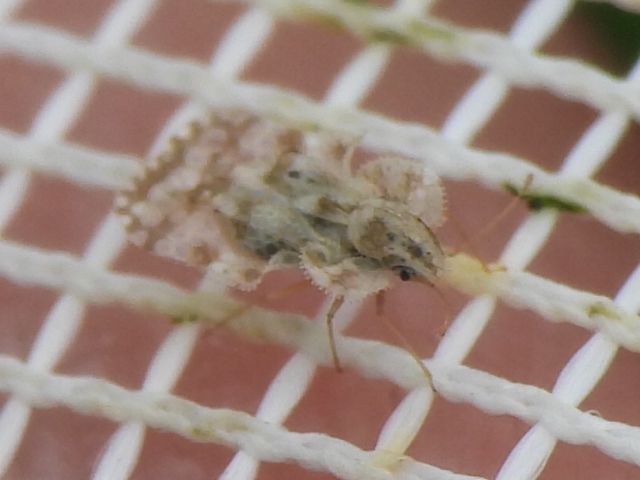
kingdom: Animalia
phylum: Arthropoda
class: Insecta
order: Hemiptera
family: Tingidae
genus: Corythucha
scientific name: Corythucha marmorata
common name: Chrysanthemum lace bug
